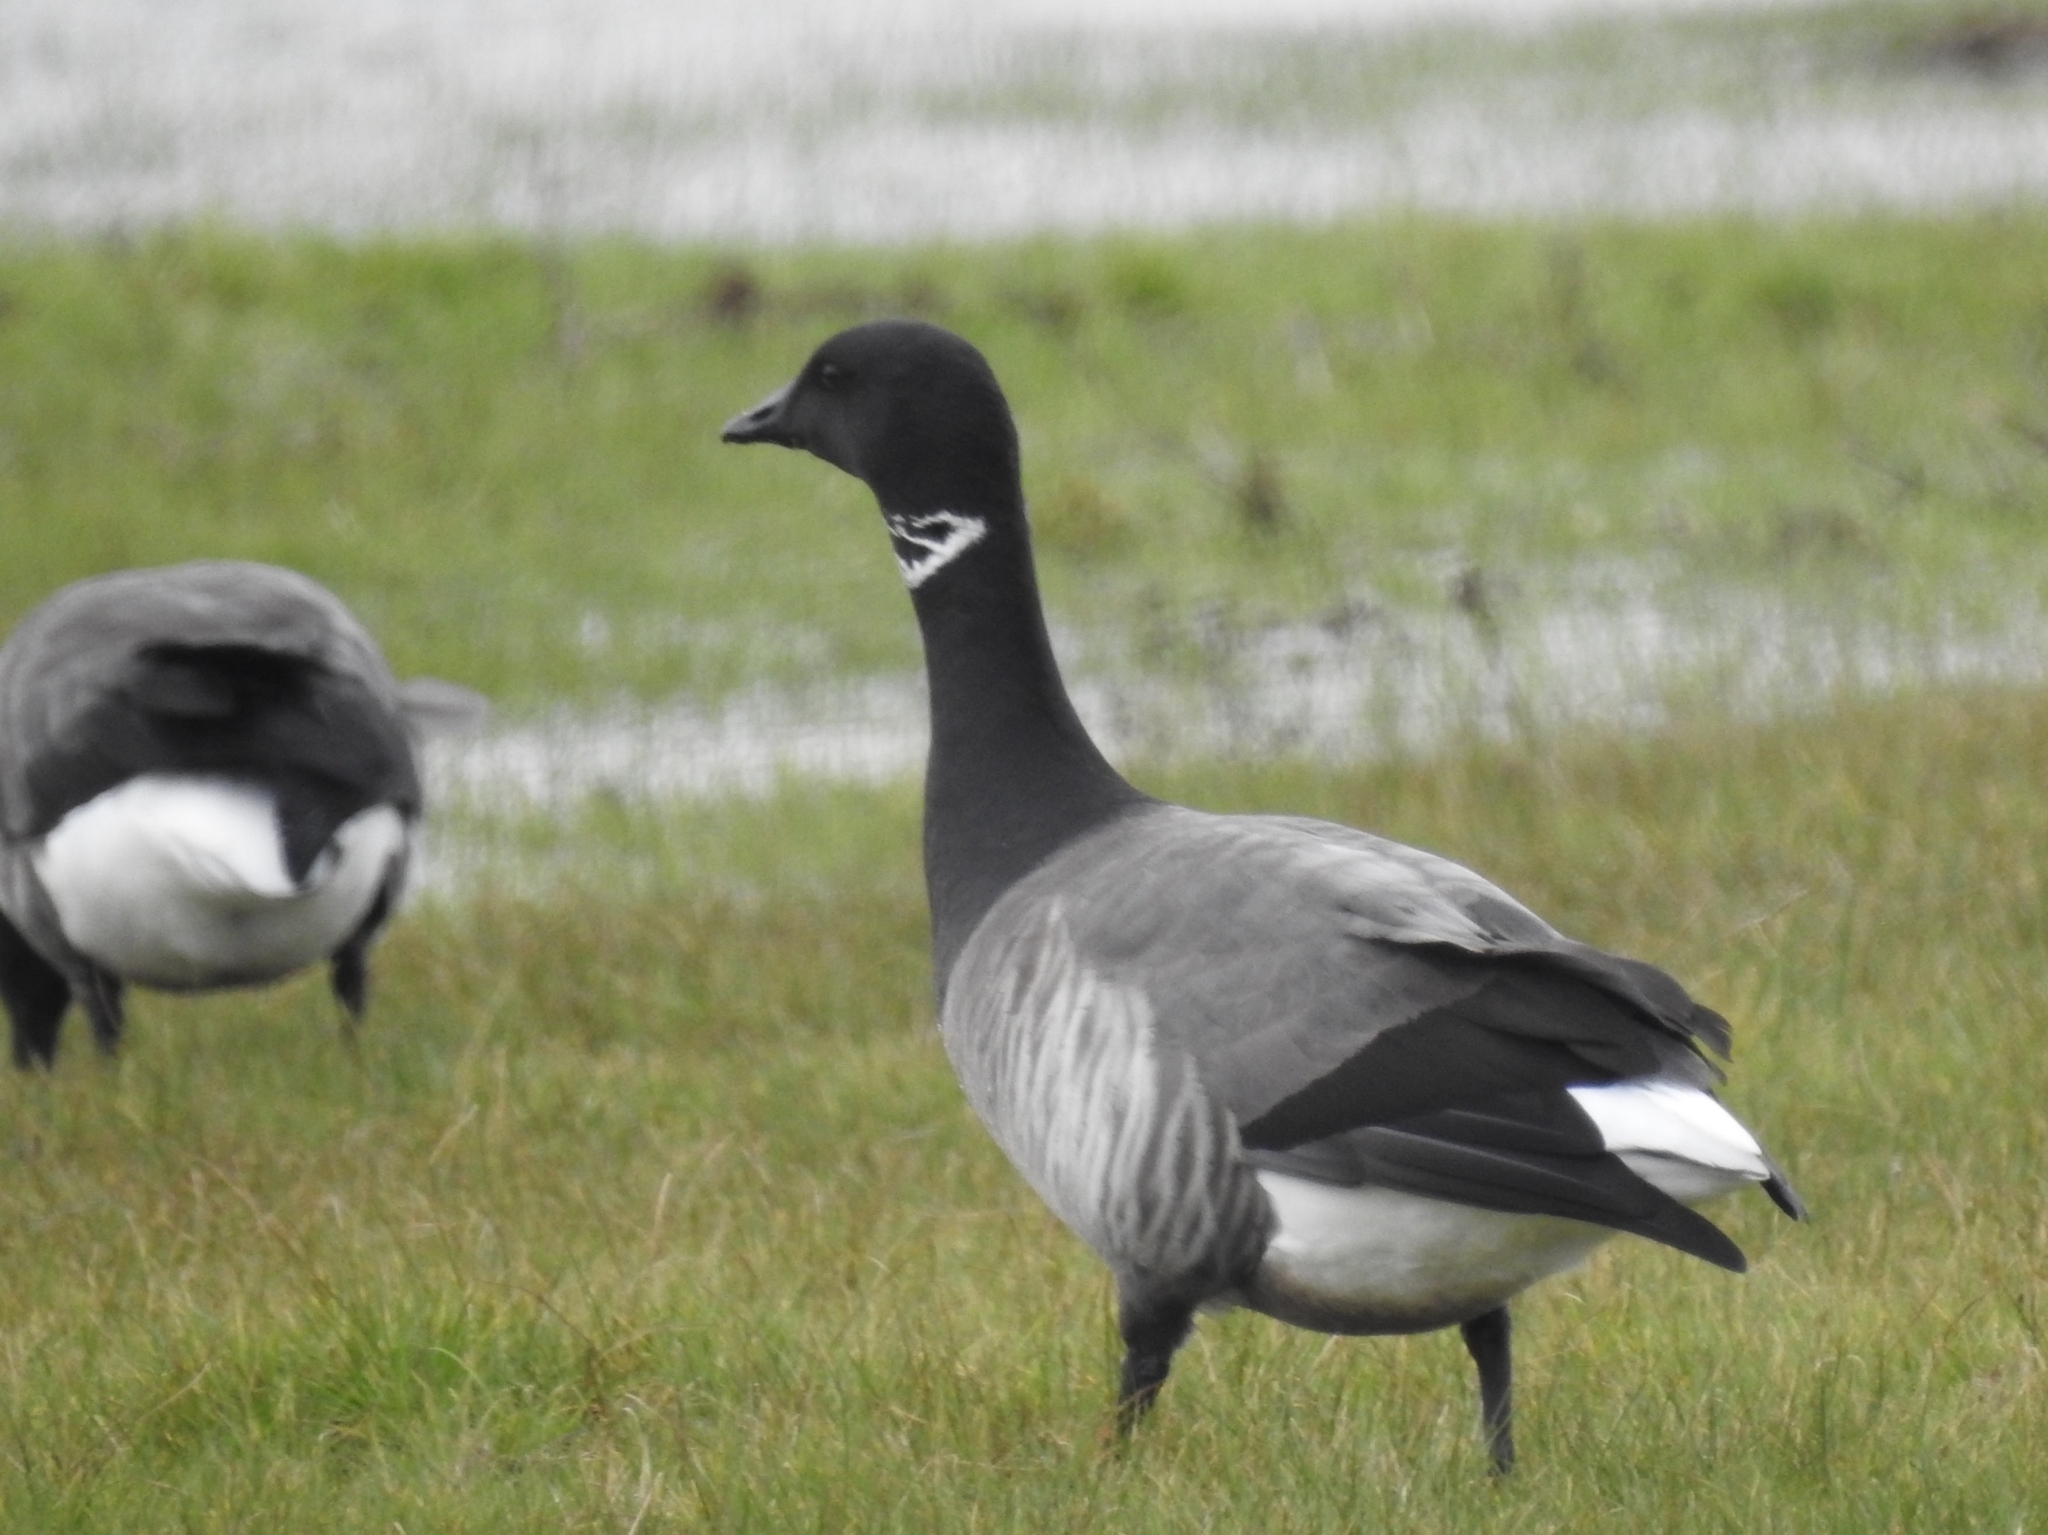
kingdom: Animalia
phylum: Chordata
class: Aves
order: Anseriformes
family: Anatidae
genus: Branta
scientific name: Branta bernicla
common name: Brant goose
